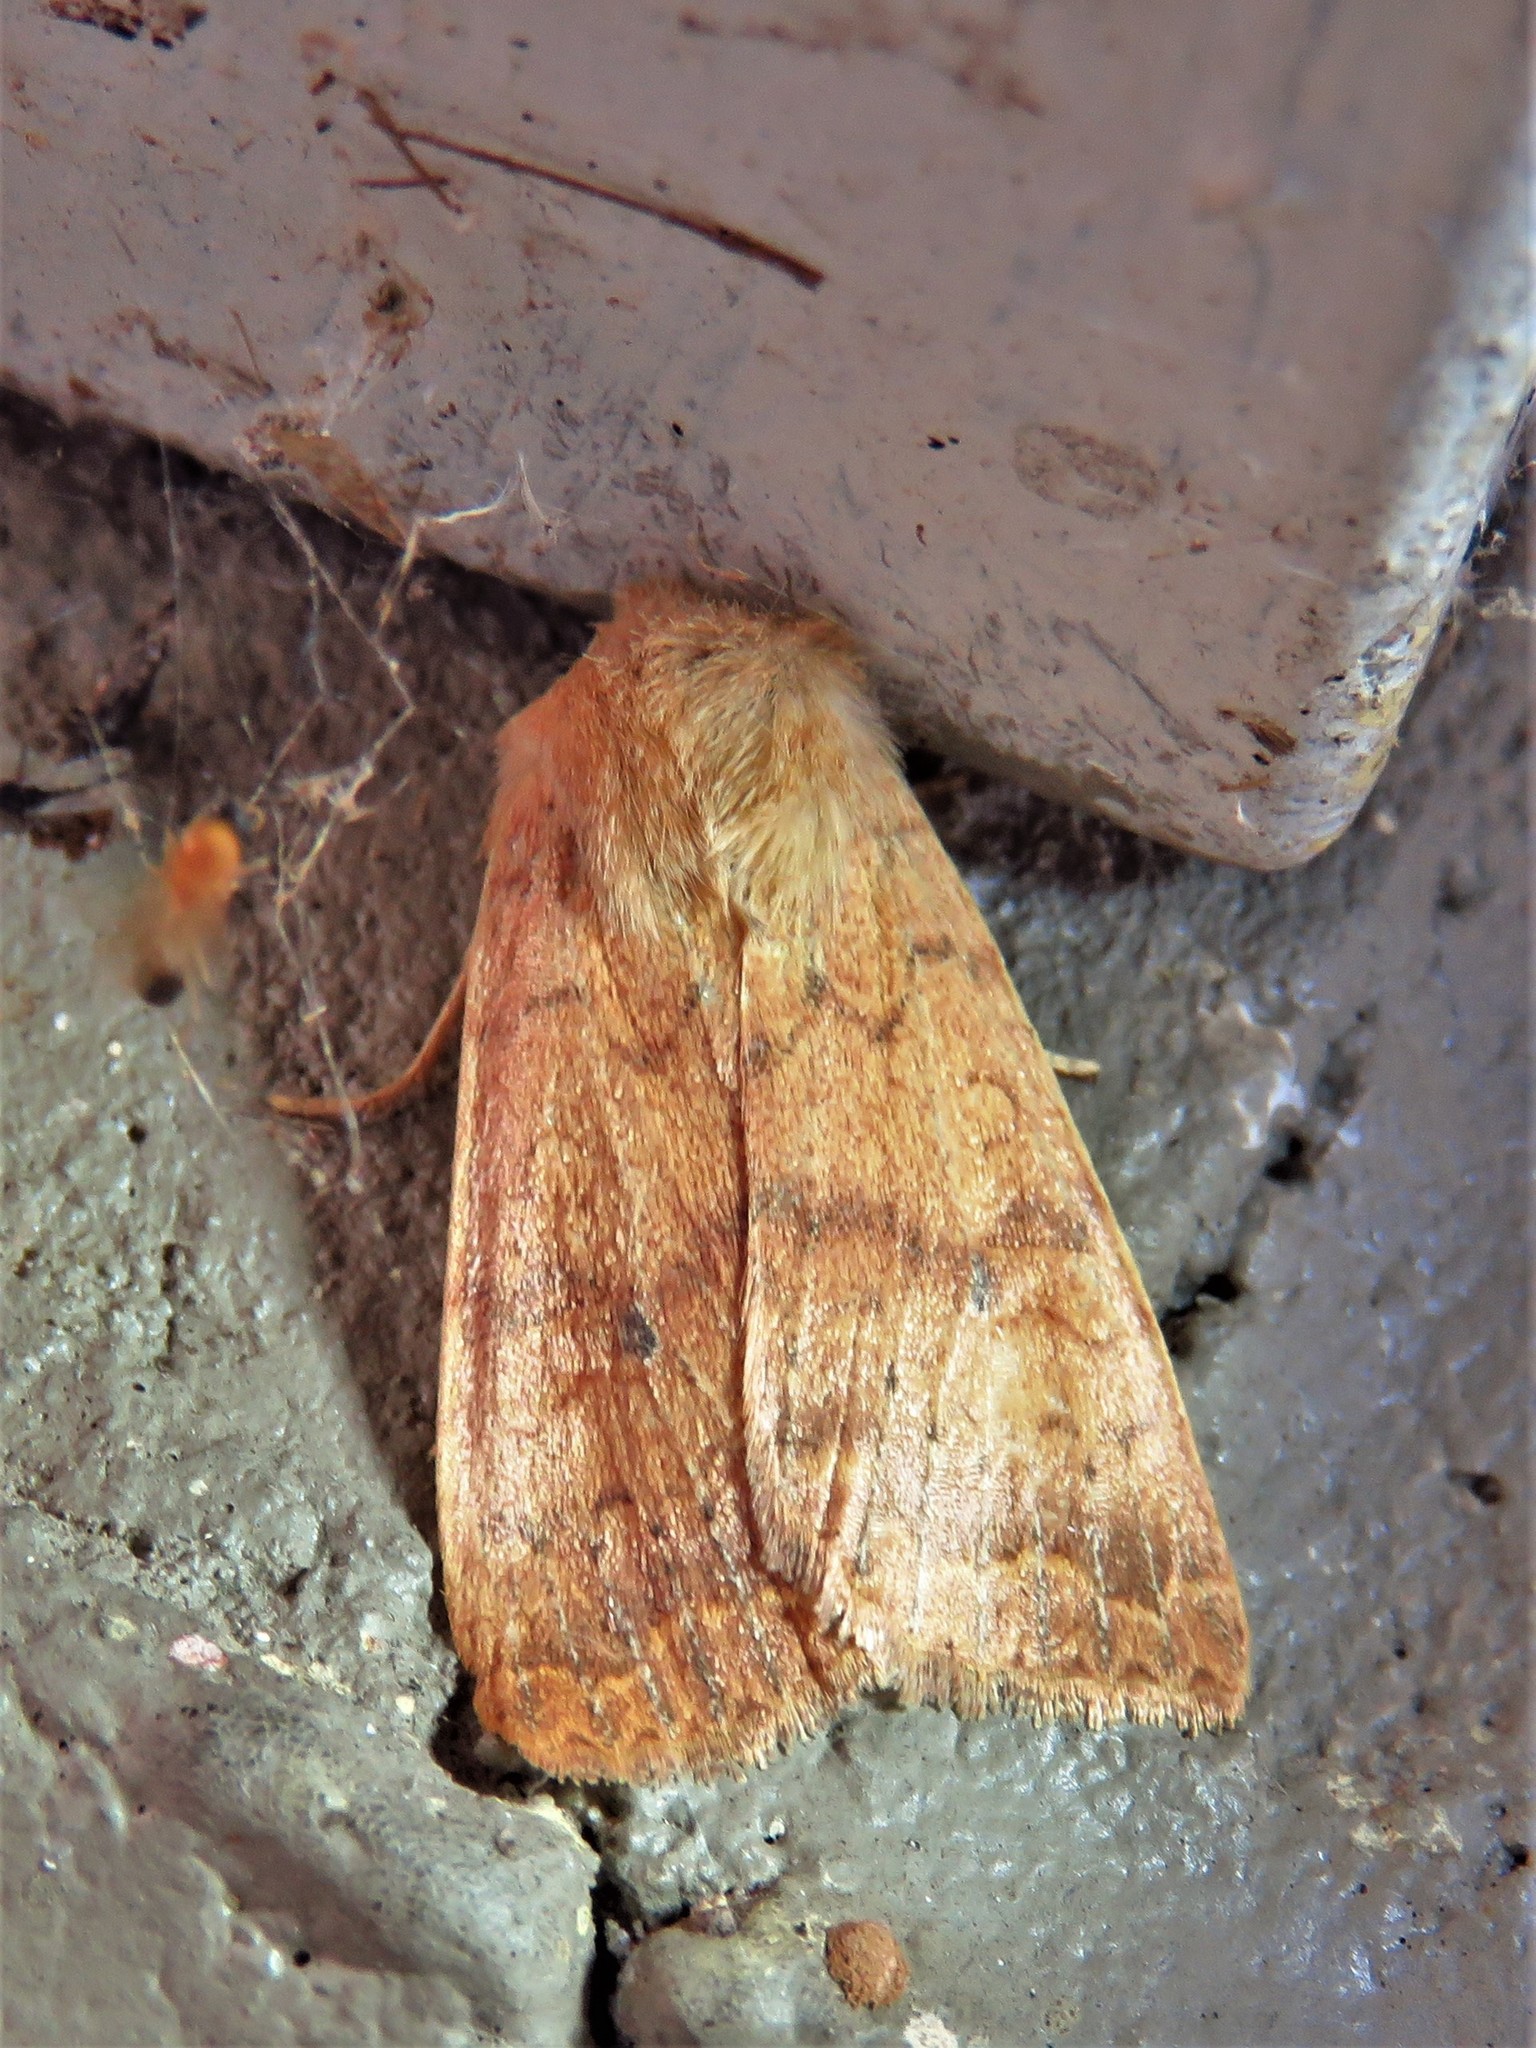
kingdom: Animalia
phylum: Arthropoda
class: Insecta
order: Lepidoptera
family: Noctuidae
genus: Agrochola
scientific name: Agrochola bicolorago
